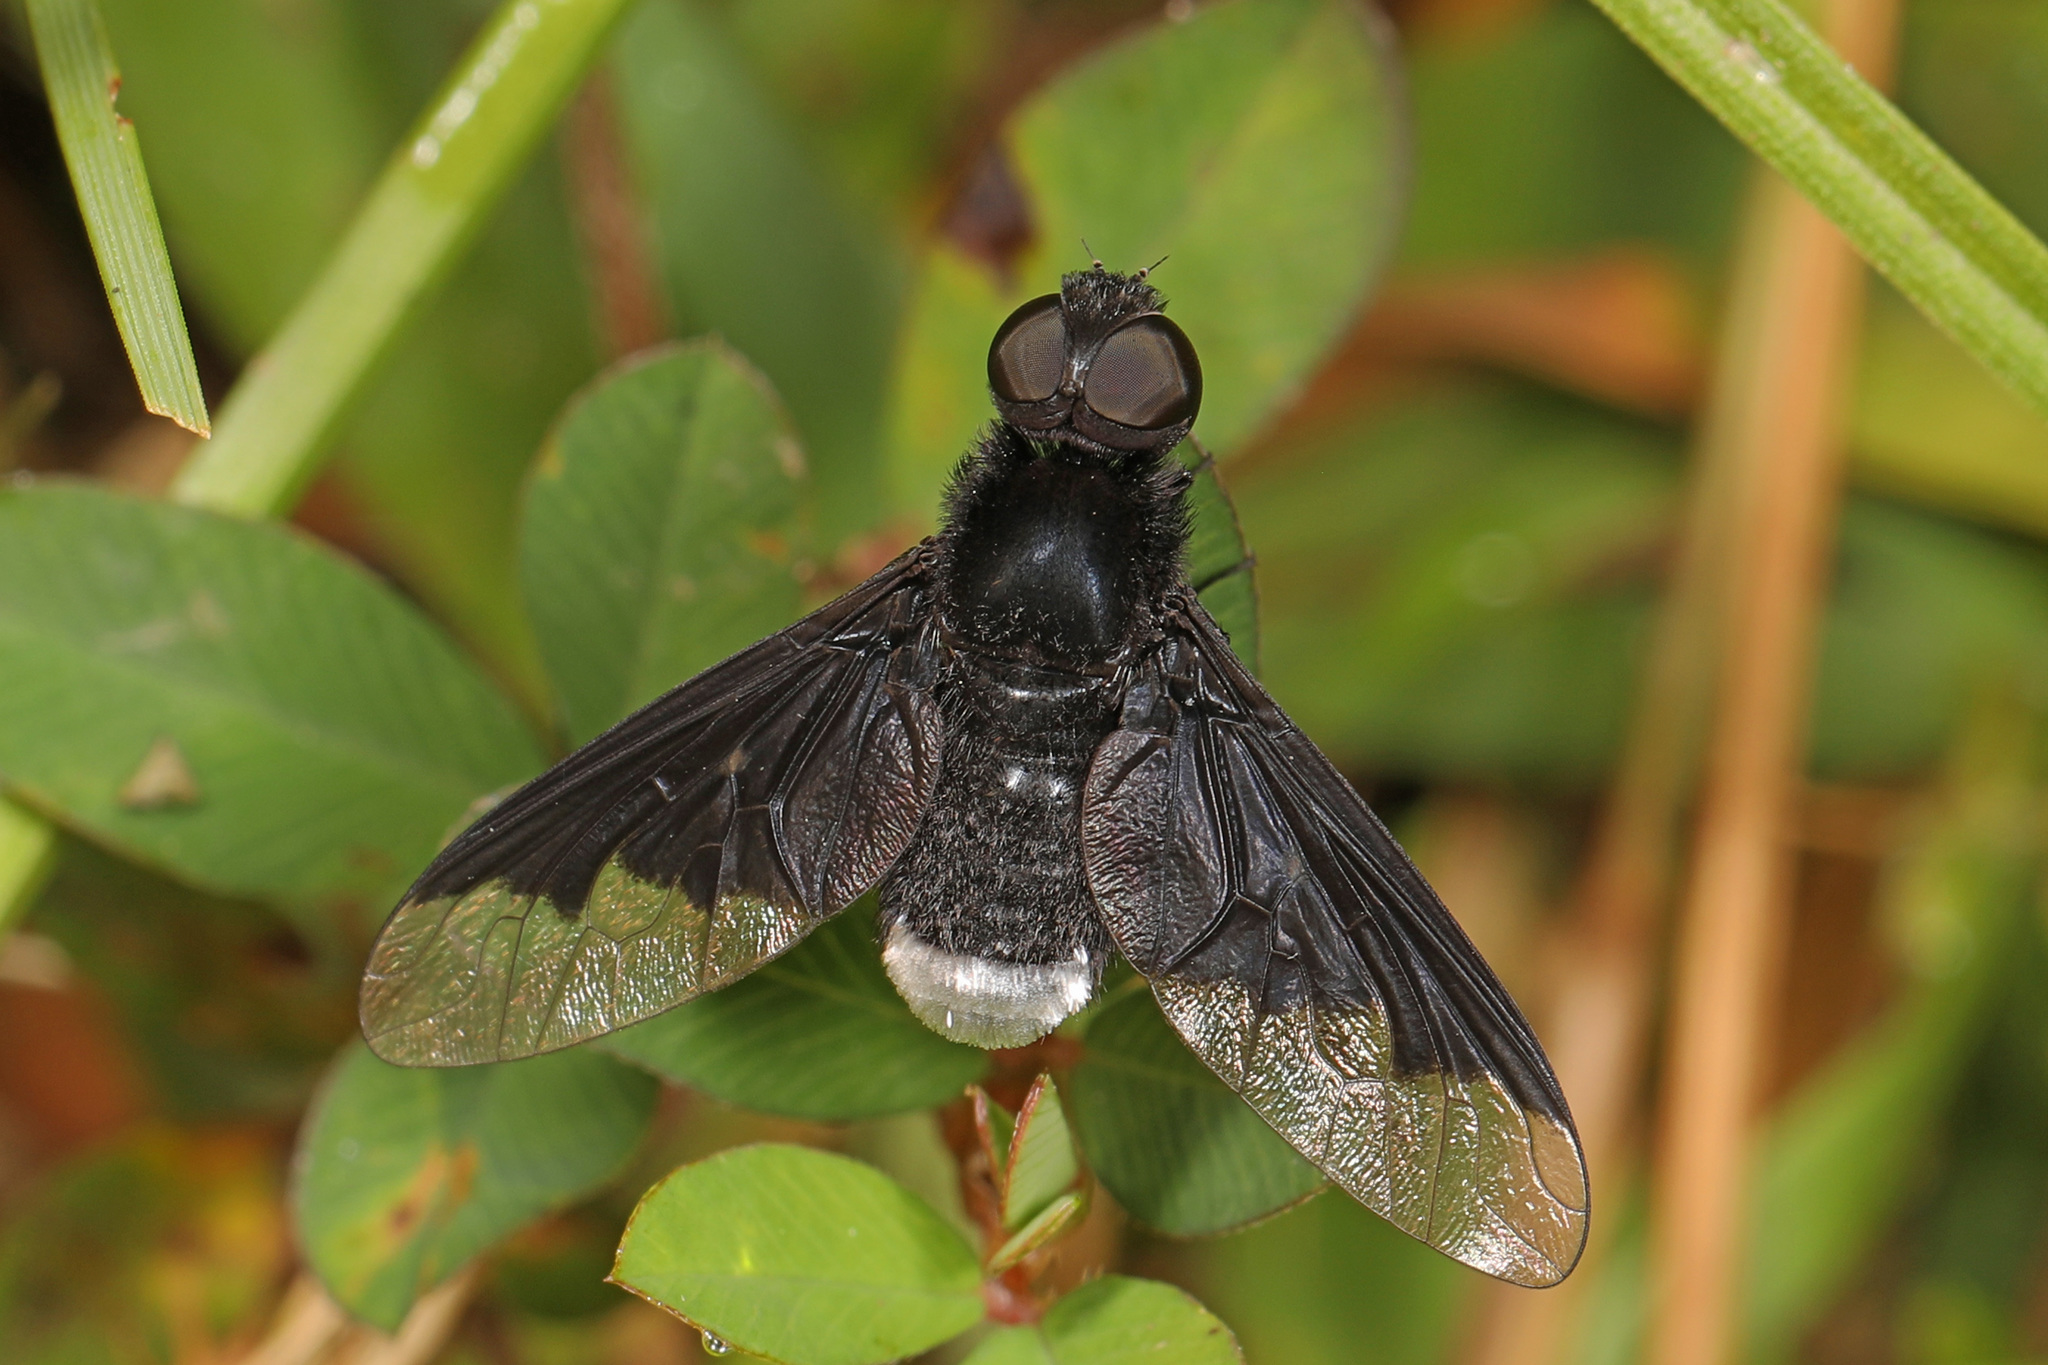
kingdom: Animalia
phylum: Arthropoda
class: Insecta
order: Diptera
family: Bombyliidae
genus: Anthrax
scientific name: Anthrax analis
